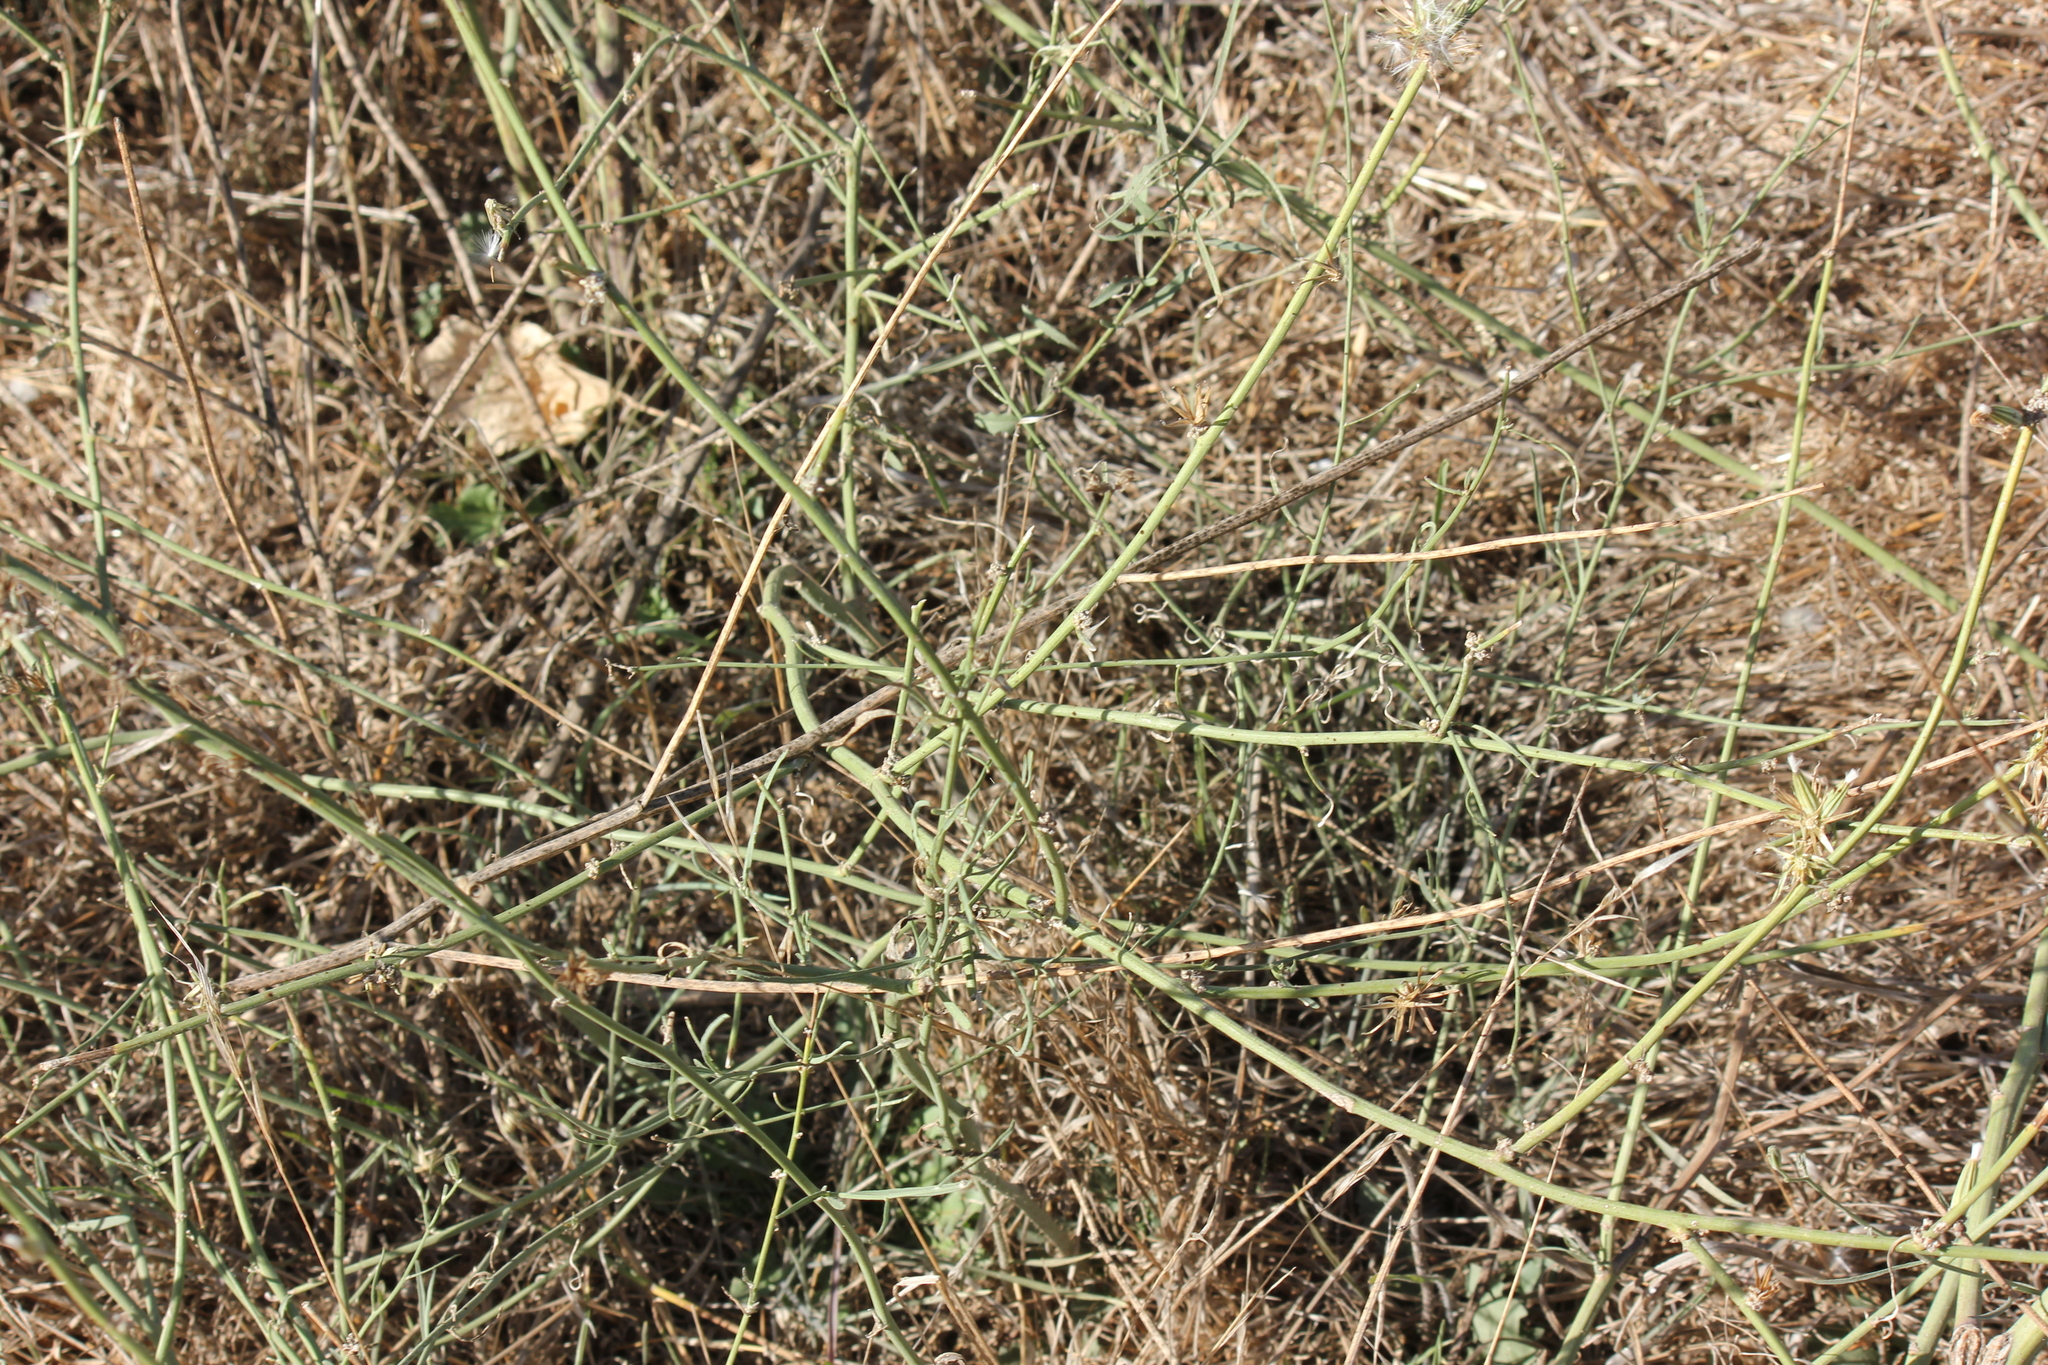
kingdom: Plantae
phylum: Tracheophyta
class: Magnoliopsida
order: Asterales
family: Asteraceae
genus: Chondrilla
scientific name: Chondrilla juncea
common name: Skeleton weed
